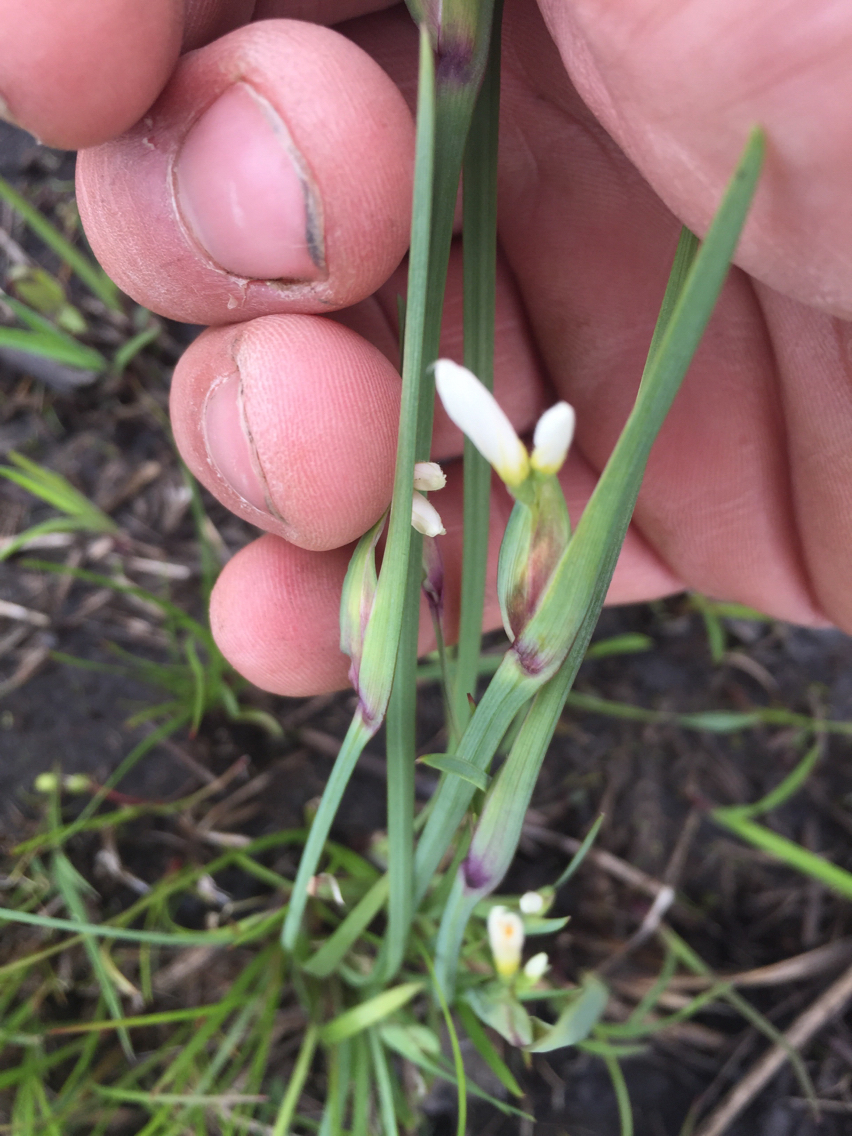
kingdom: Plantae
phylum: Tracheophyta
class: Liliopsida
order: Asparagales
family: Iridaceae
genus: Sisyrinchium
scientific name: Sisyrinchium albidum
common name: Pale blue-eyed-grass
